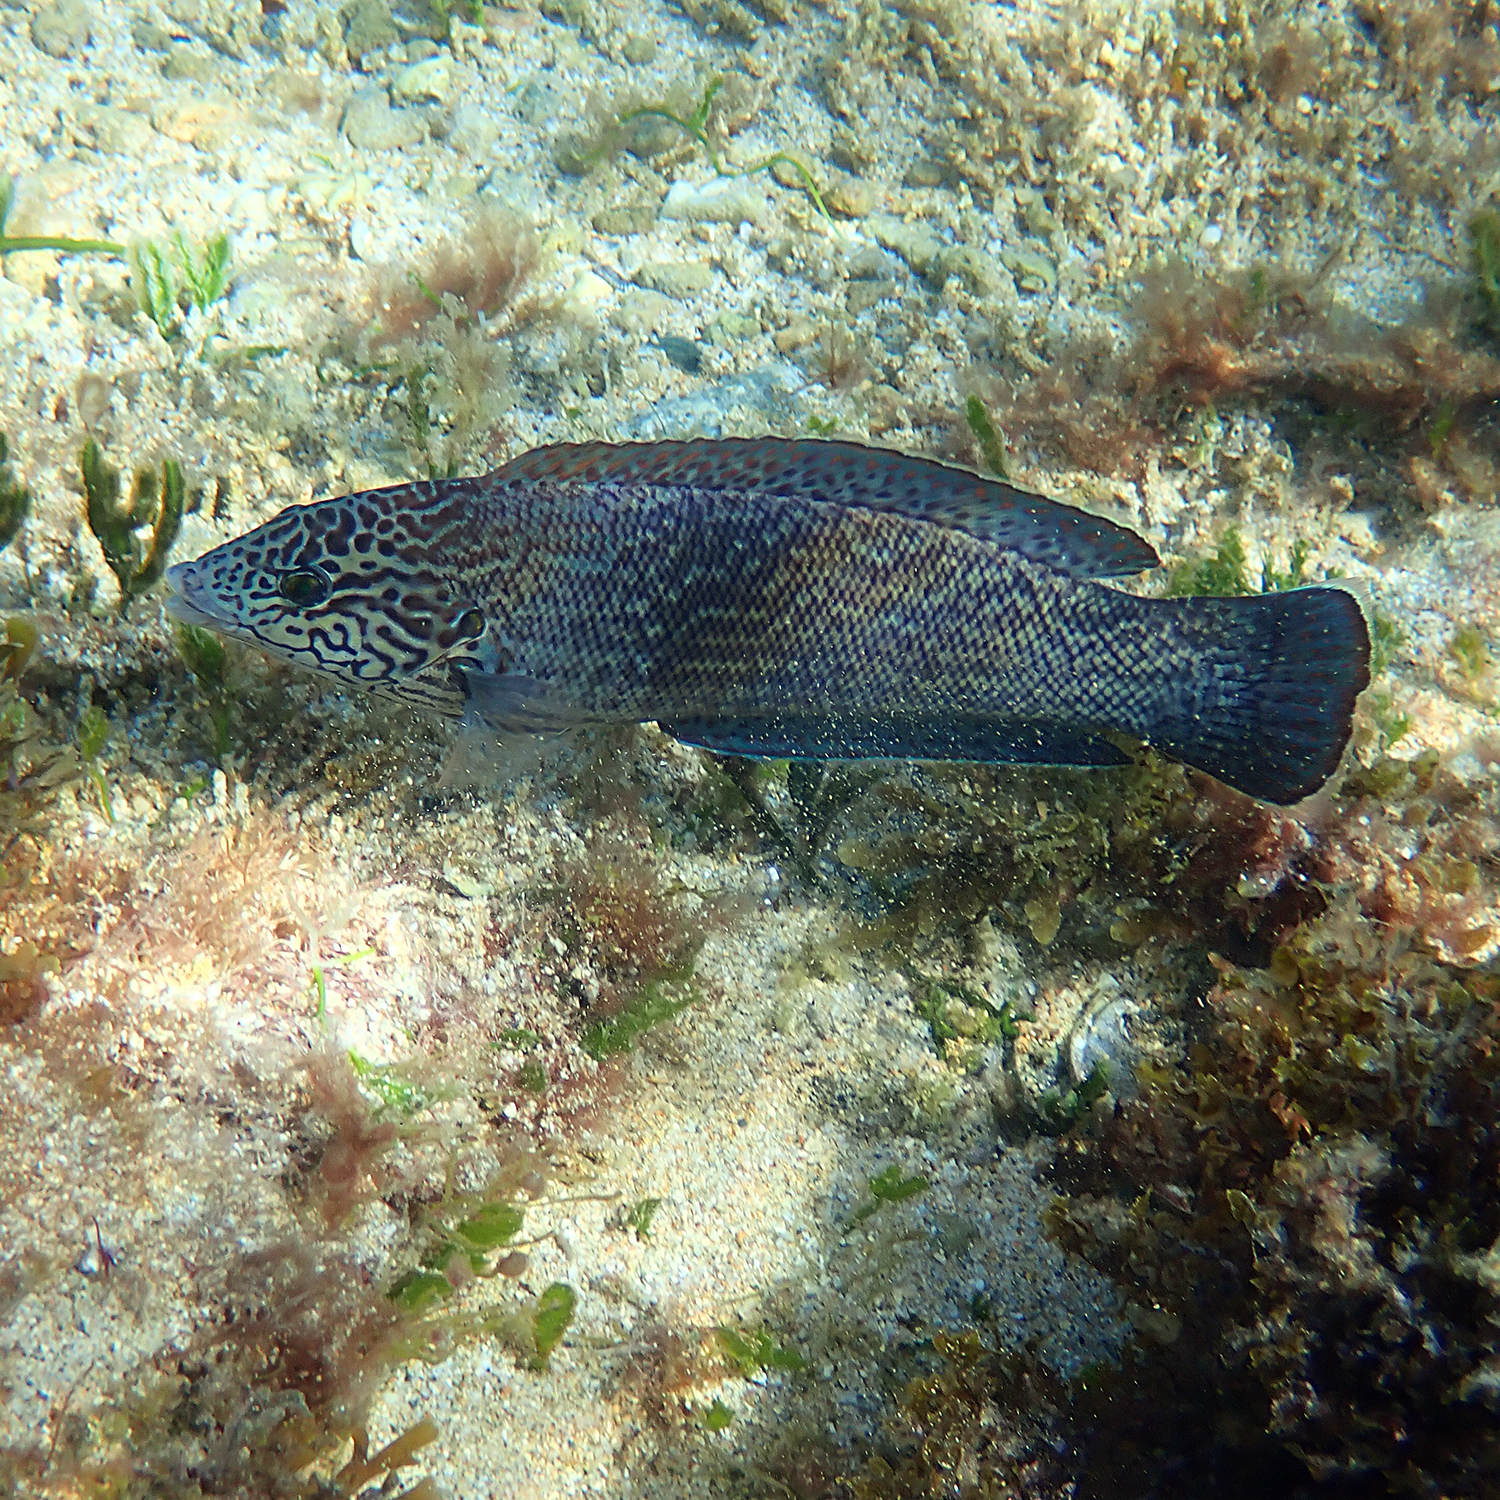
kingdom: Animalia
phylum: Chordata
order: Perciformes
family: Labridae
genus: Coris
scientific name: Coris bulbifrons
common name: Doubleheader
